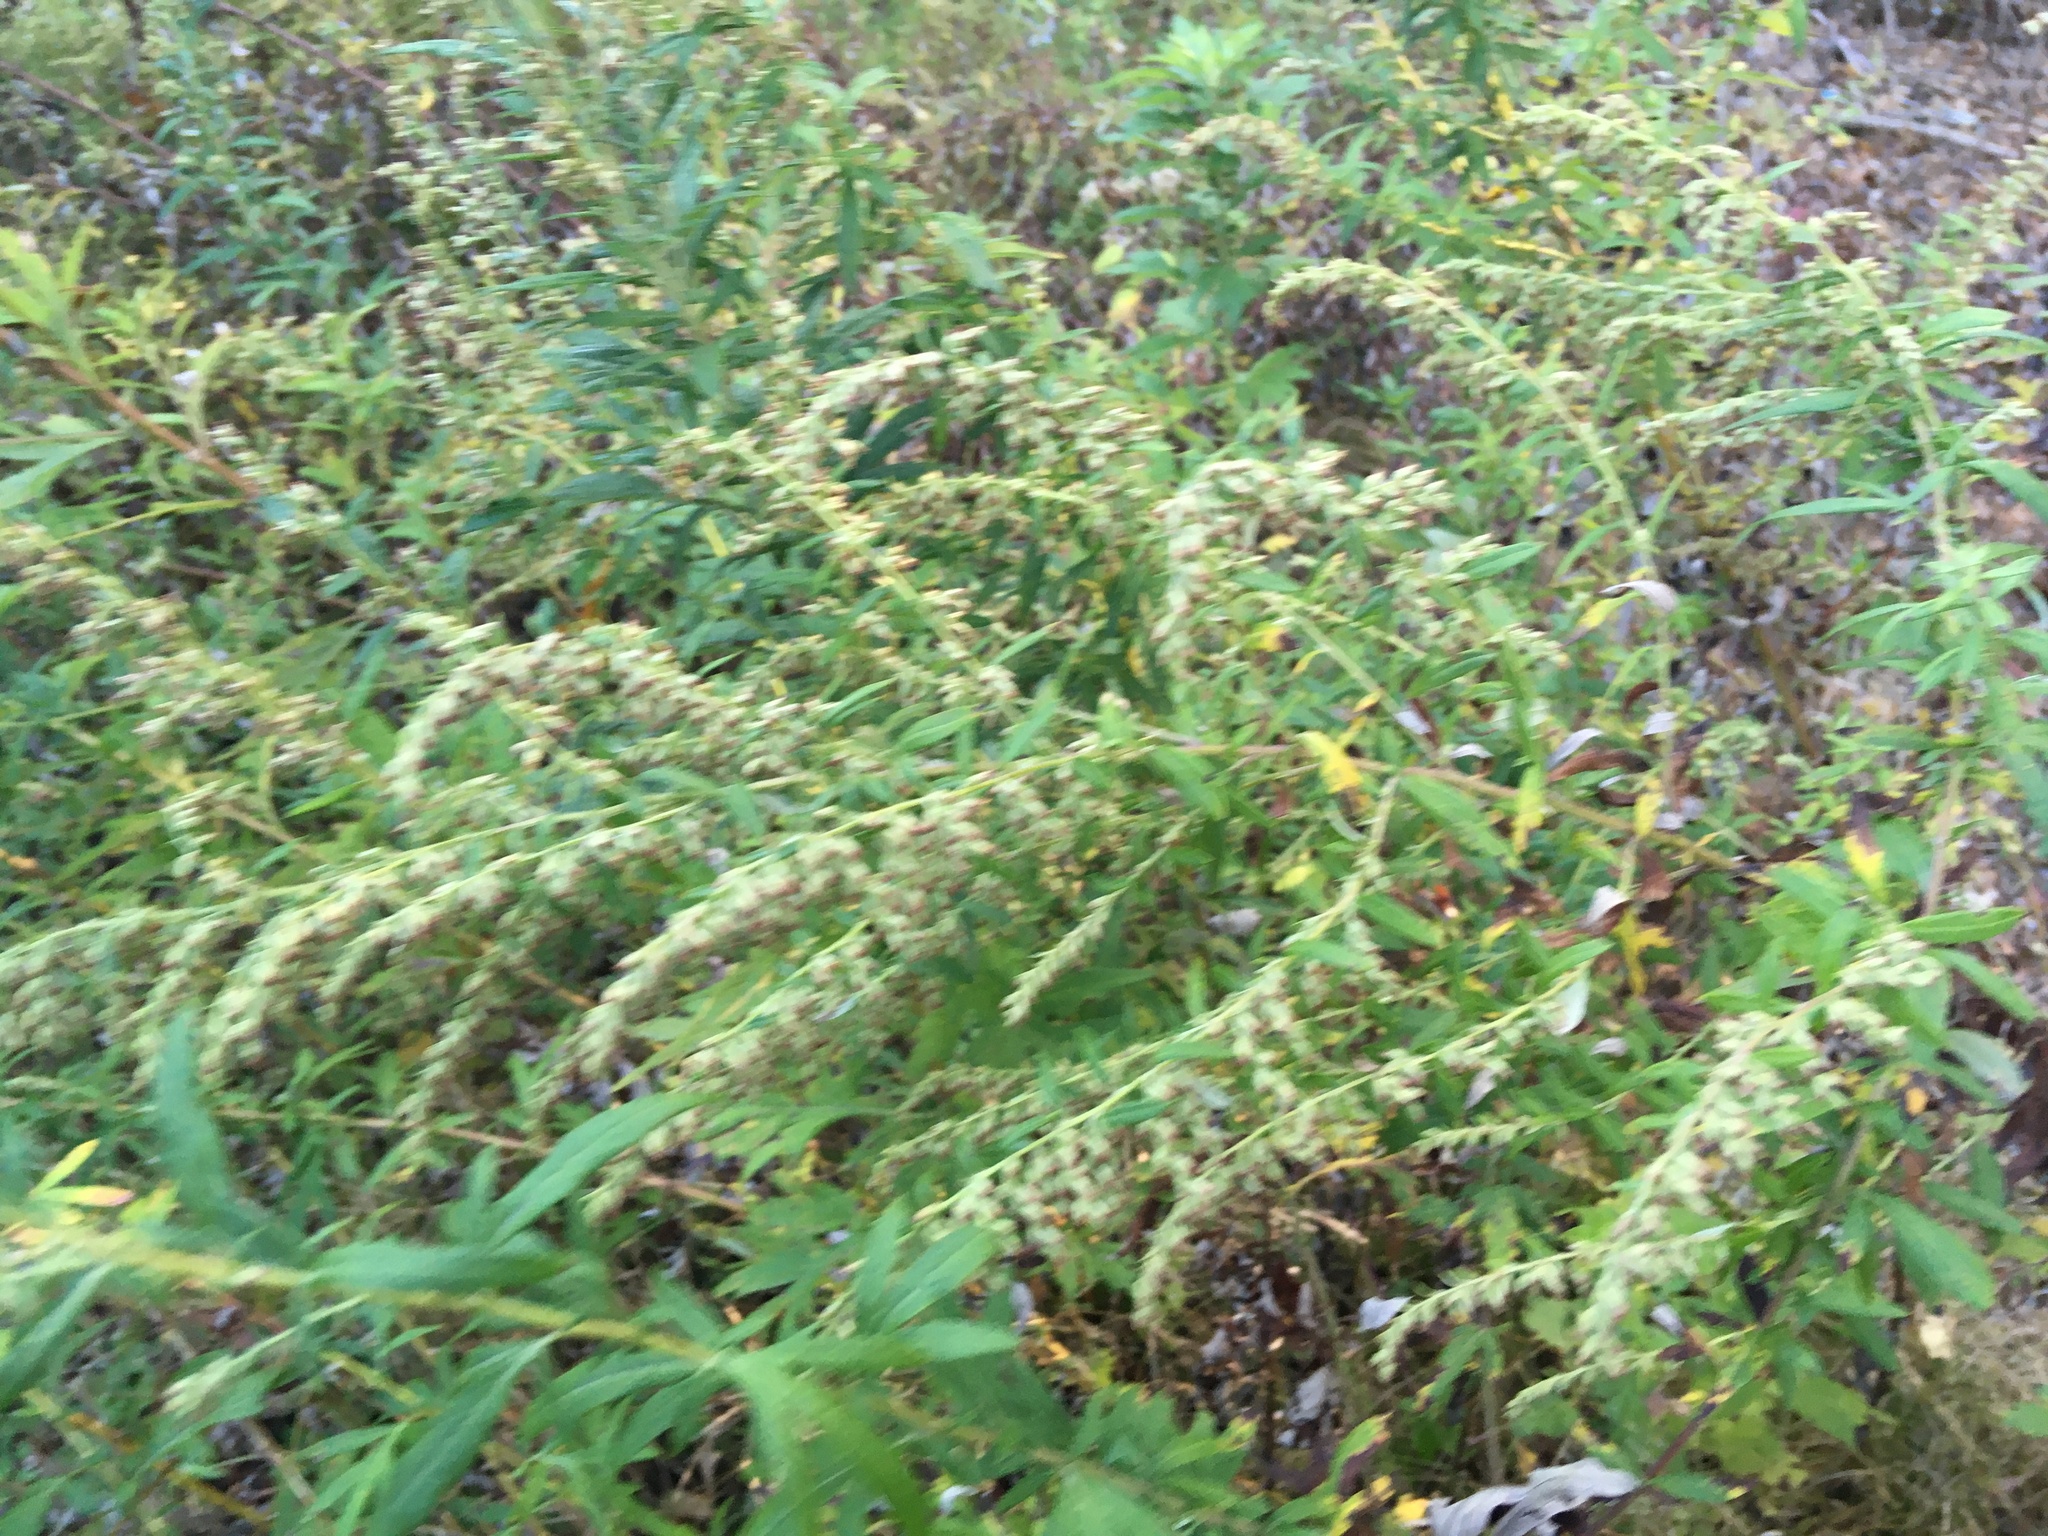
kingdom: Plantae
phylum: Tracheophyta
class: Magnoliopsida
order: Asterales
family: Asteraceae
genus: Artemisia
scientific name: Artemisia vulgaris
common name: Mugwort
